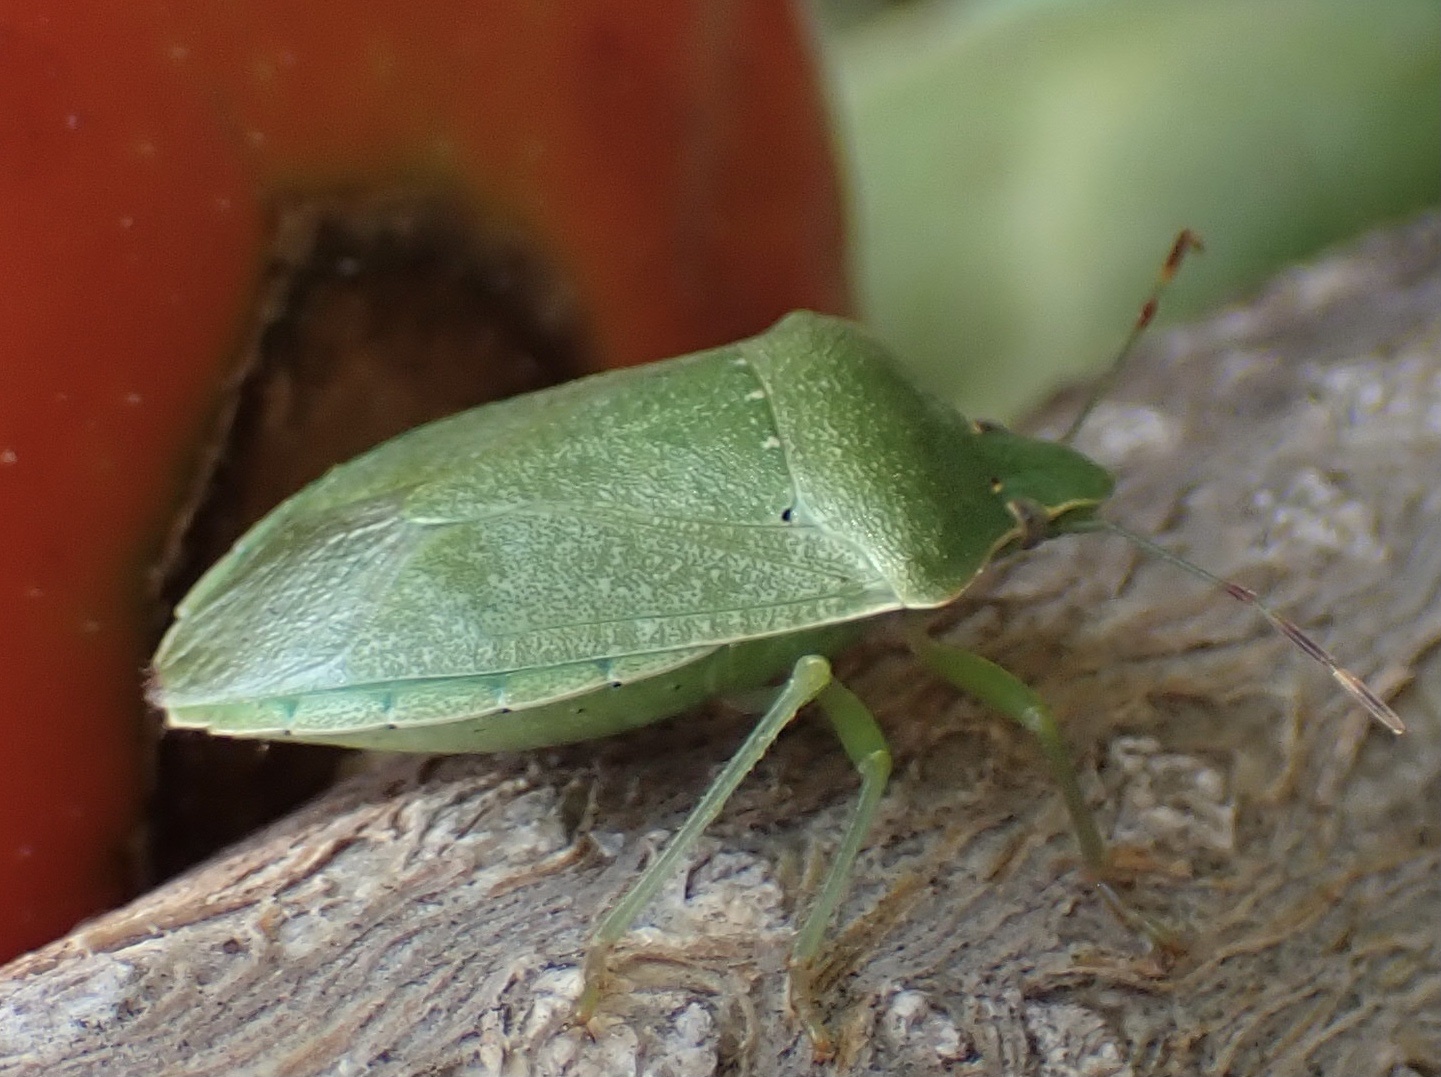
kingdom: Animalia
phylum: Arthropoda
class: Insecta
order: Hemiptera
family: Pentatomidae
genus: Nezara
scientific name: Nezara viridula
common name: Southern green stink bug
